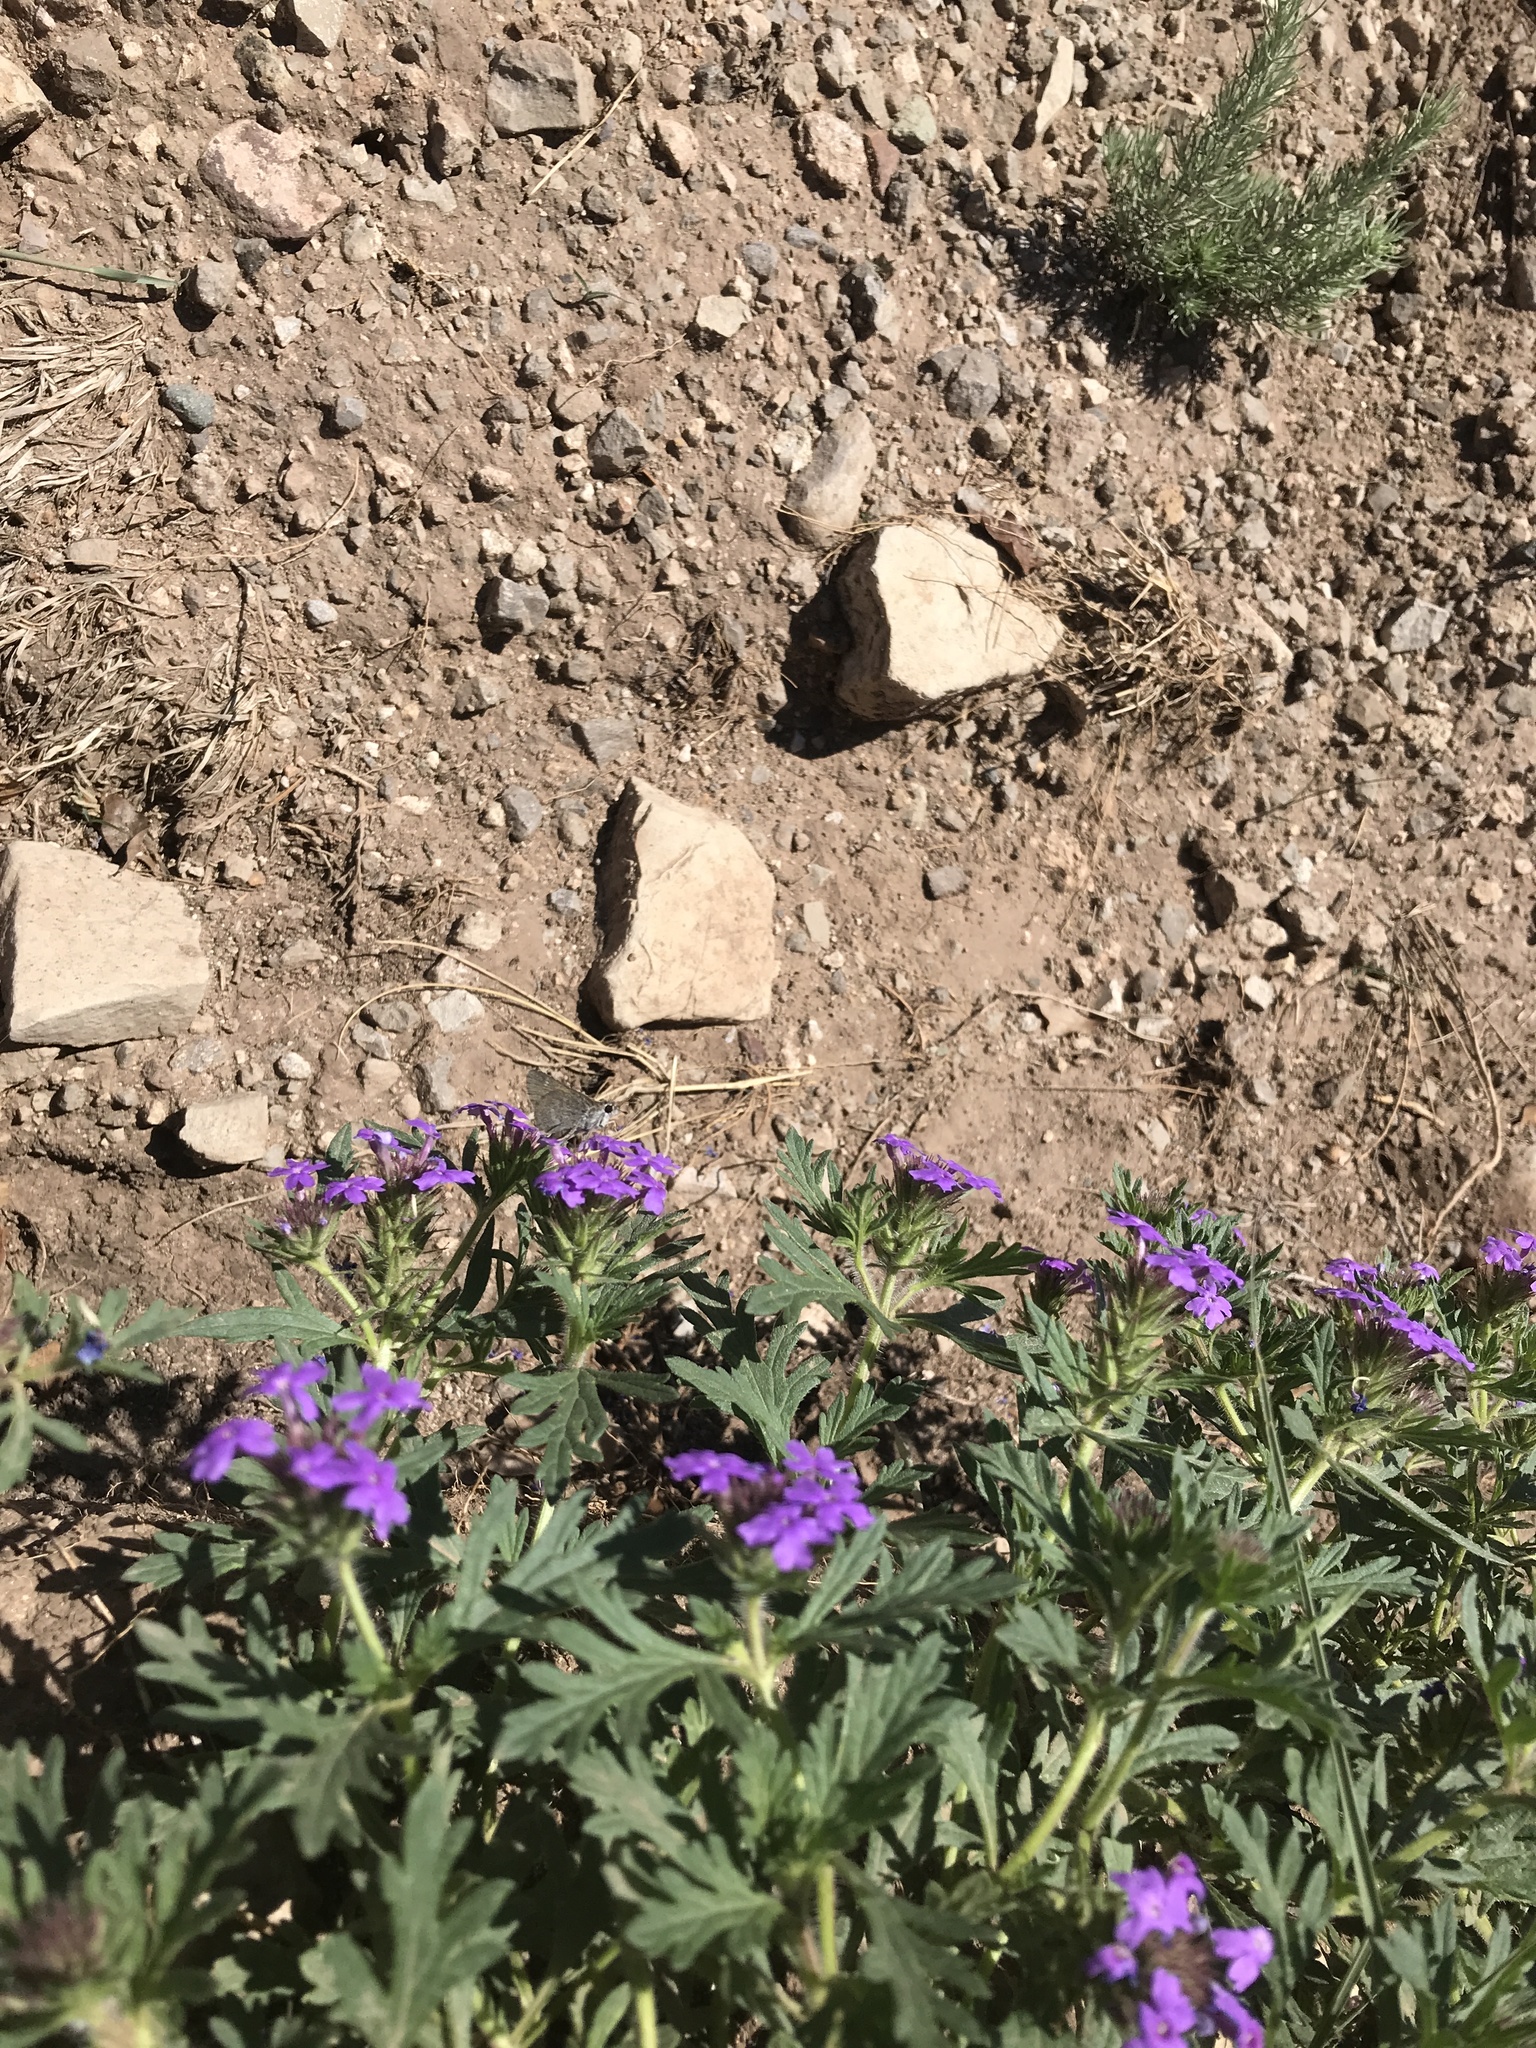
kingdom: Animalia
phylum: Arthropoda
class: Insecta
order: Lepidoptera
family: Hesperiidae
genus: Mastor
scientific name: Mastor oslari
